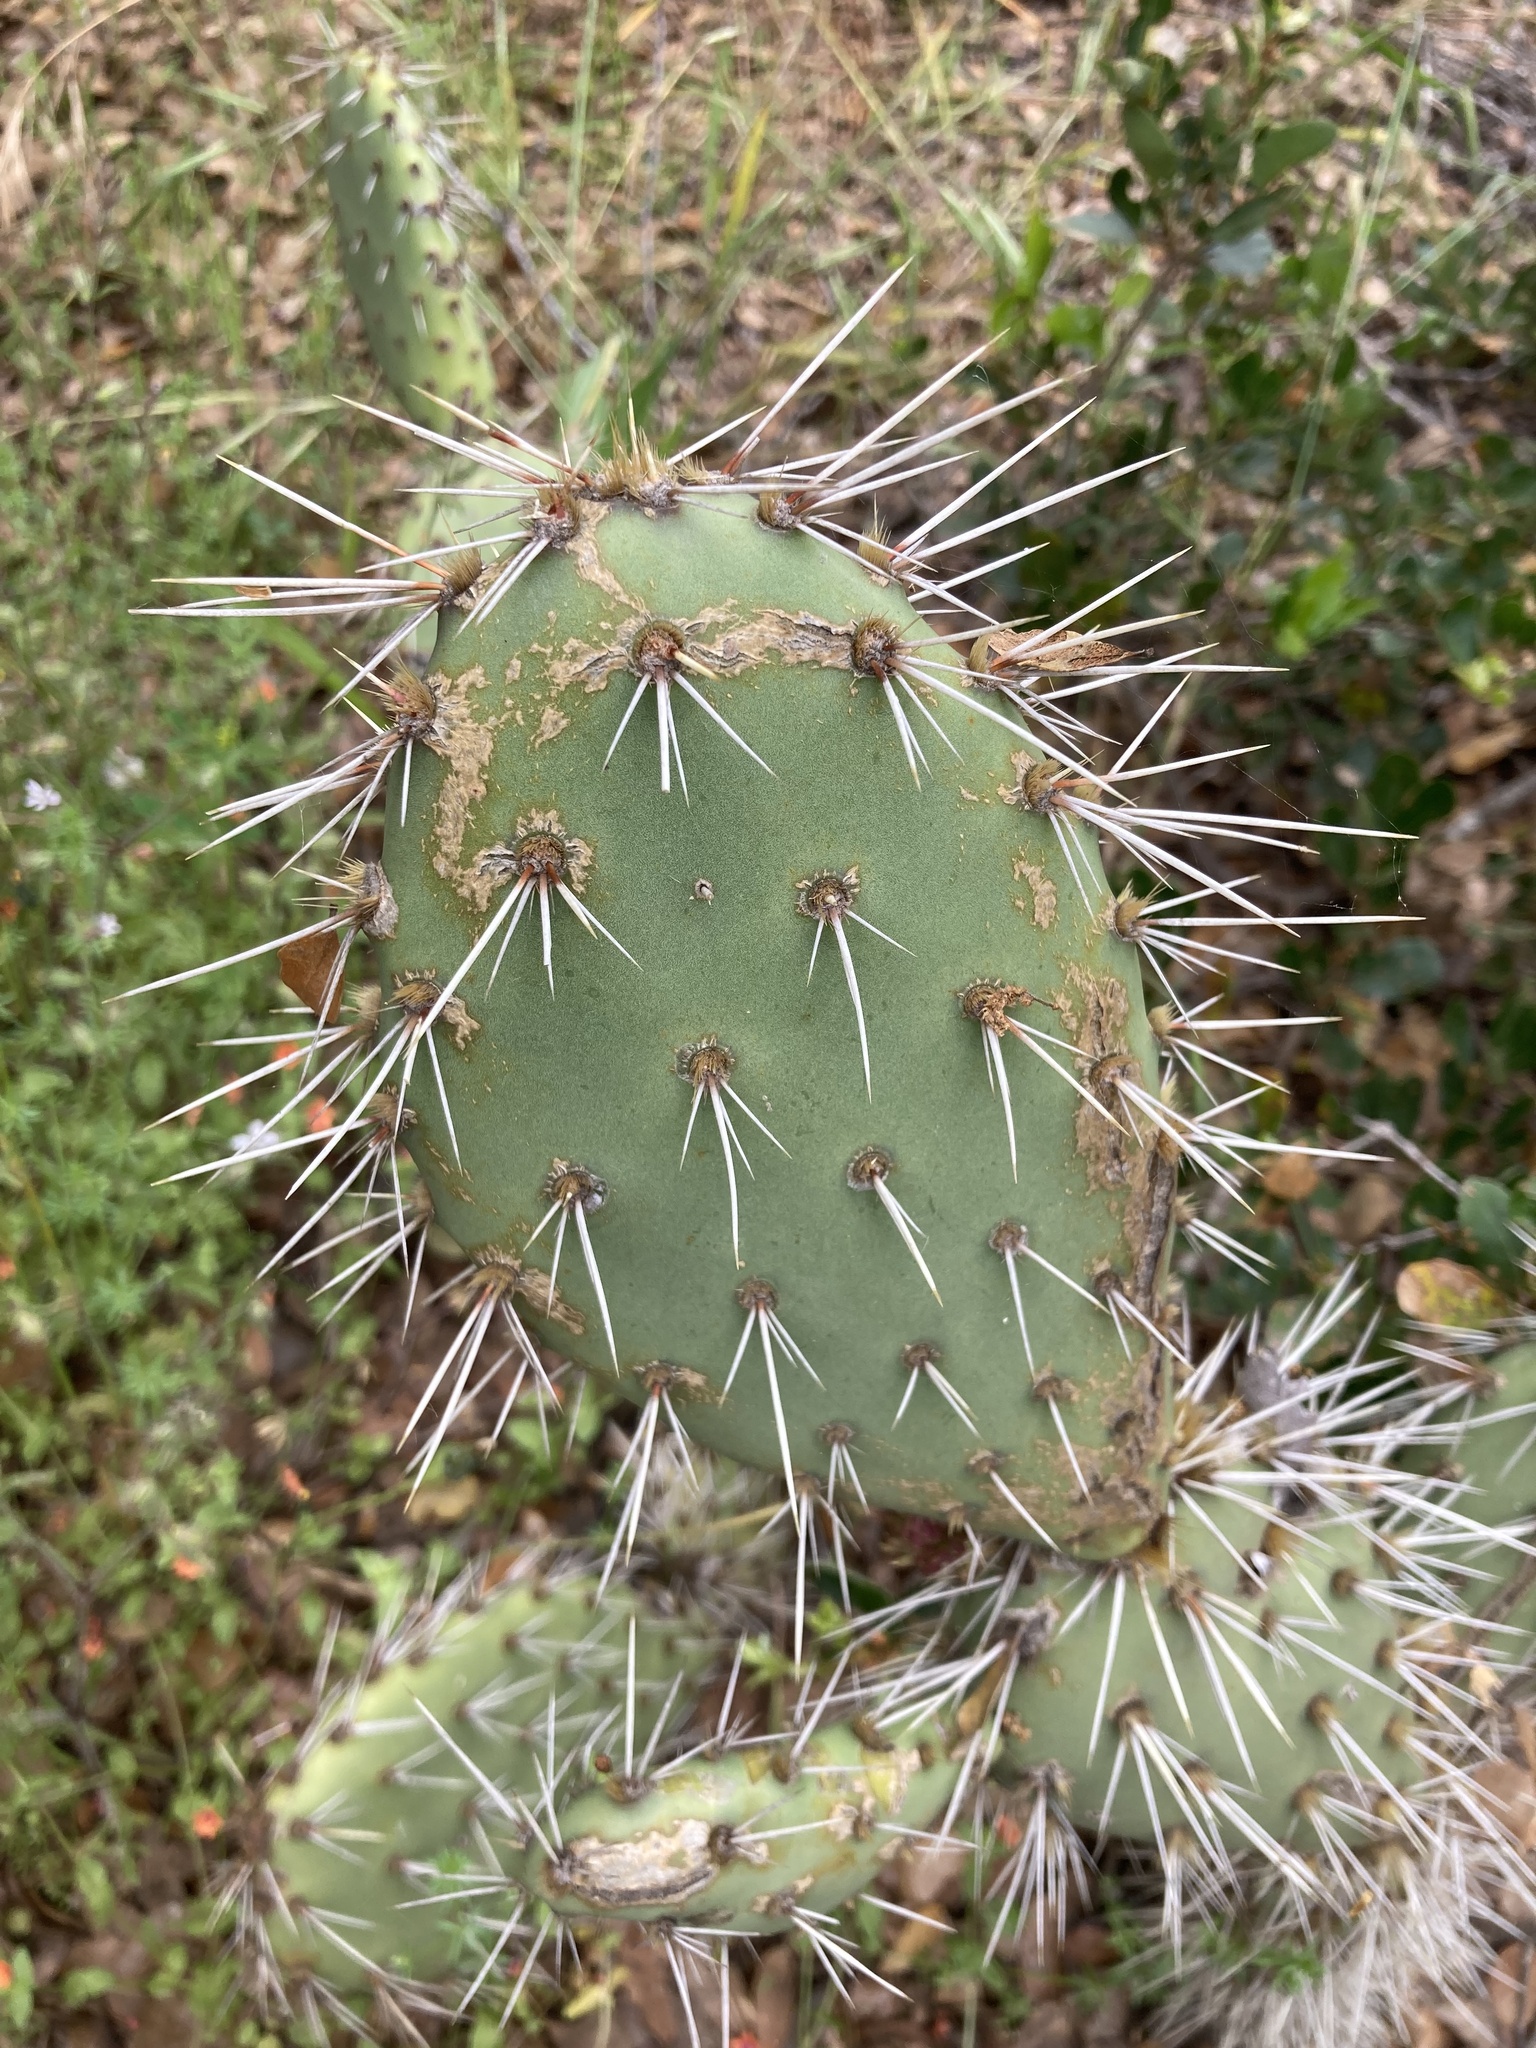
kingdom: Plantae
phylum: Tracheophyta
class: Magnoliopsida
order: Caryophyllales
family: Cactaceae
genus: Opuntia
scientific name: Opuntia littoralis
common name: Coastal prickly-pear
